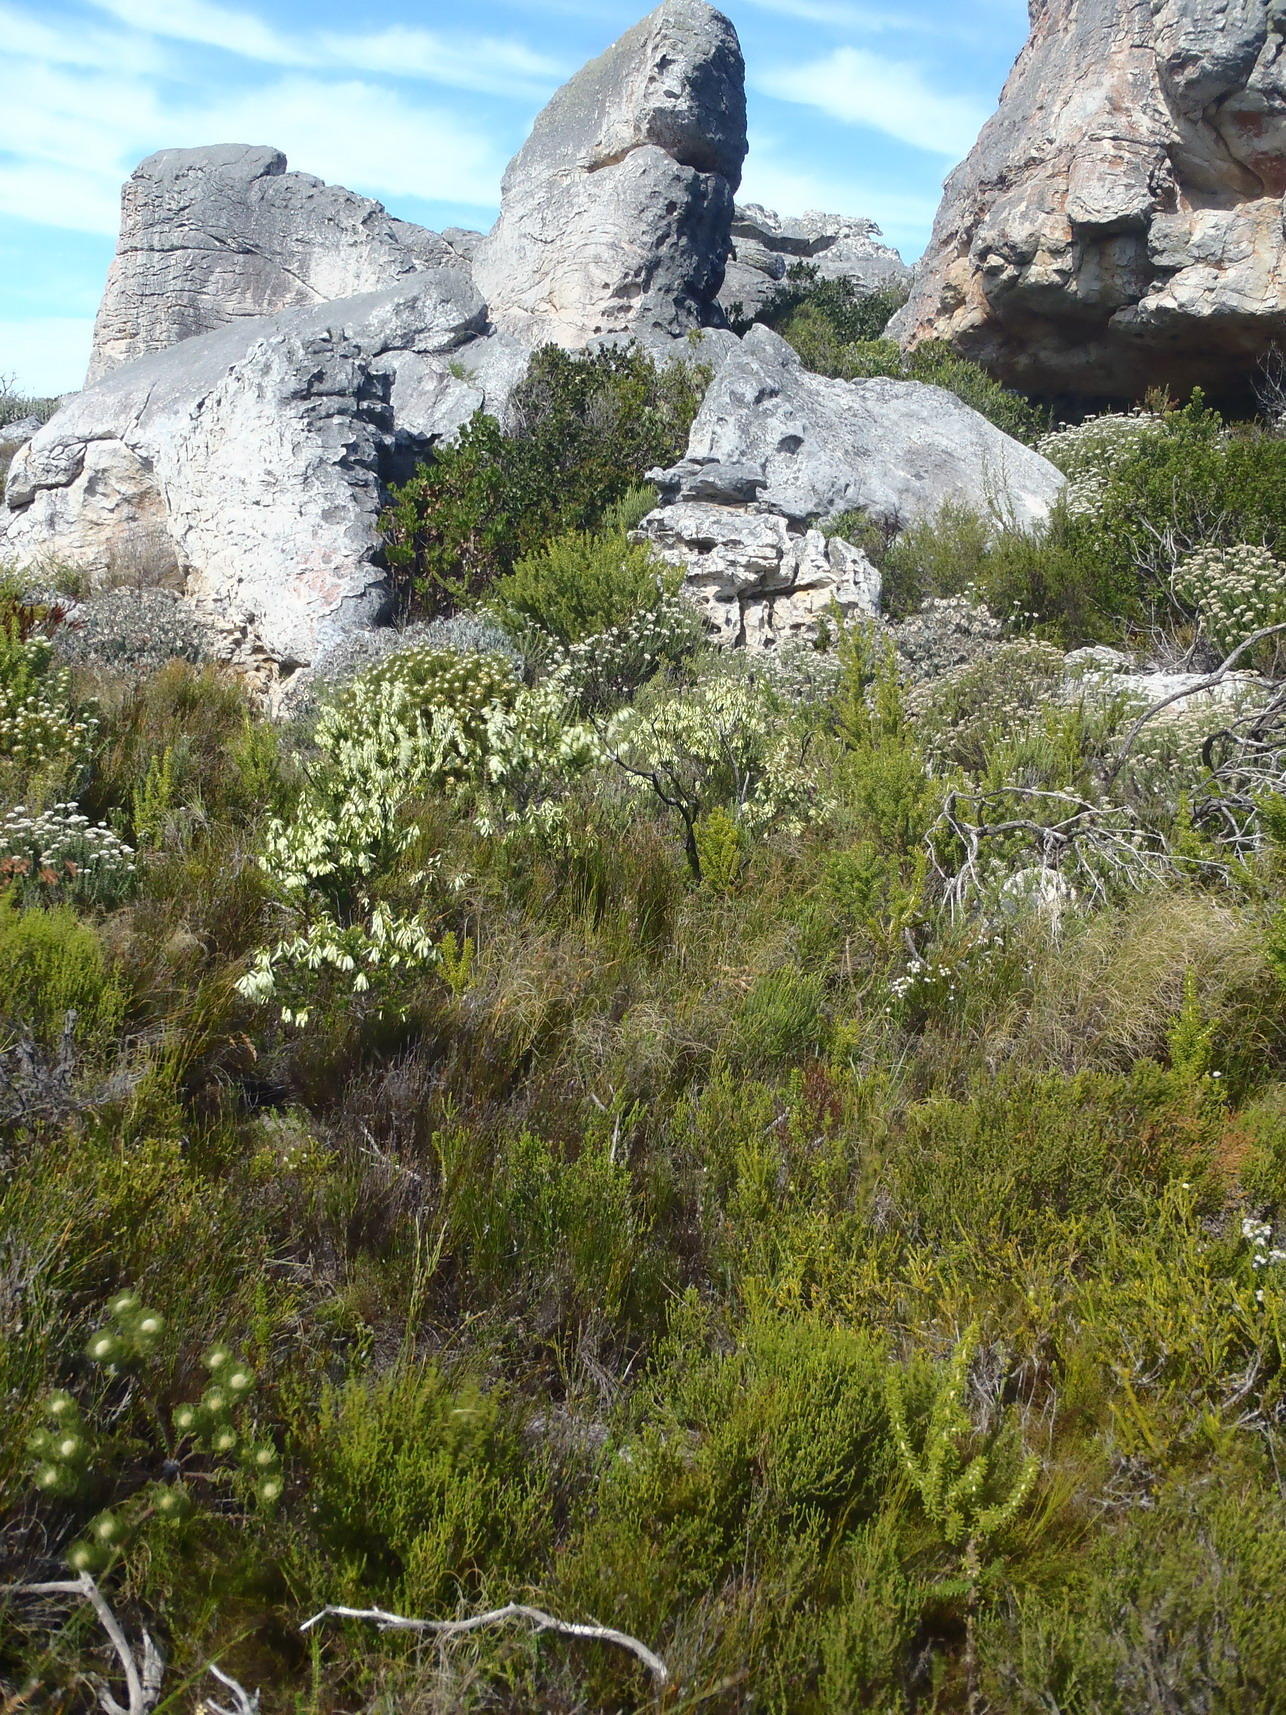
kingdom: Plantae
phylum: Tracheophyta
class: Magnoliopsida
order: Ericales
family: Ericaceae
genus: Erica
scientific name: Erica mammosa
